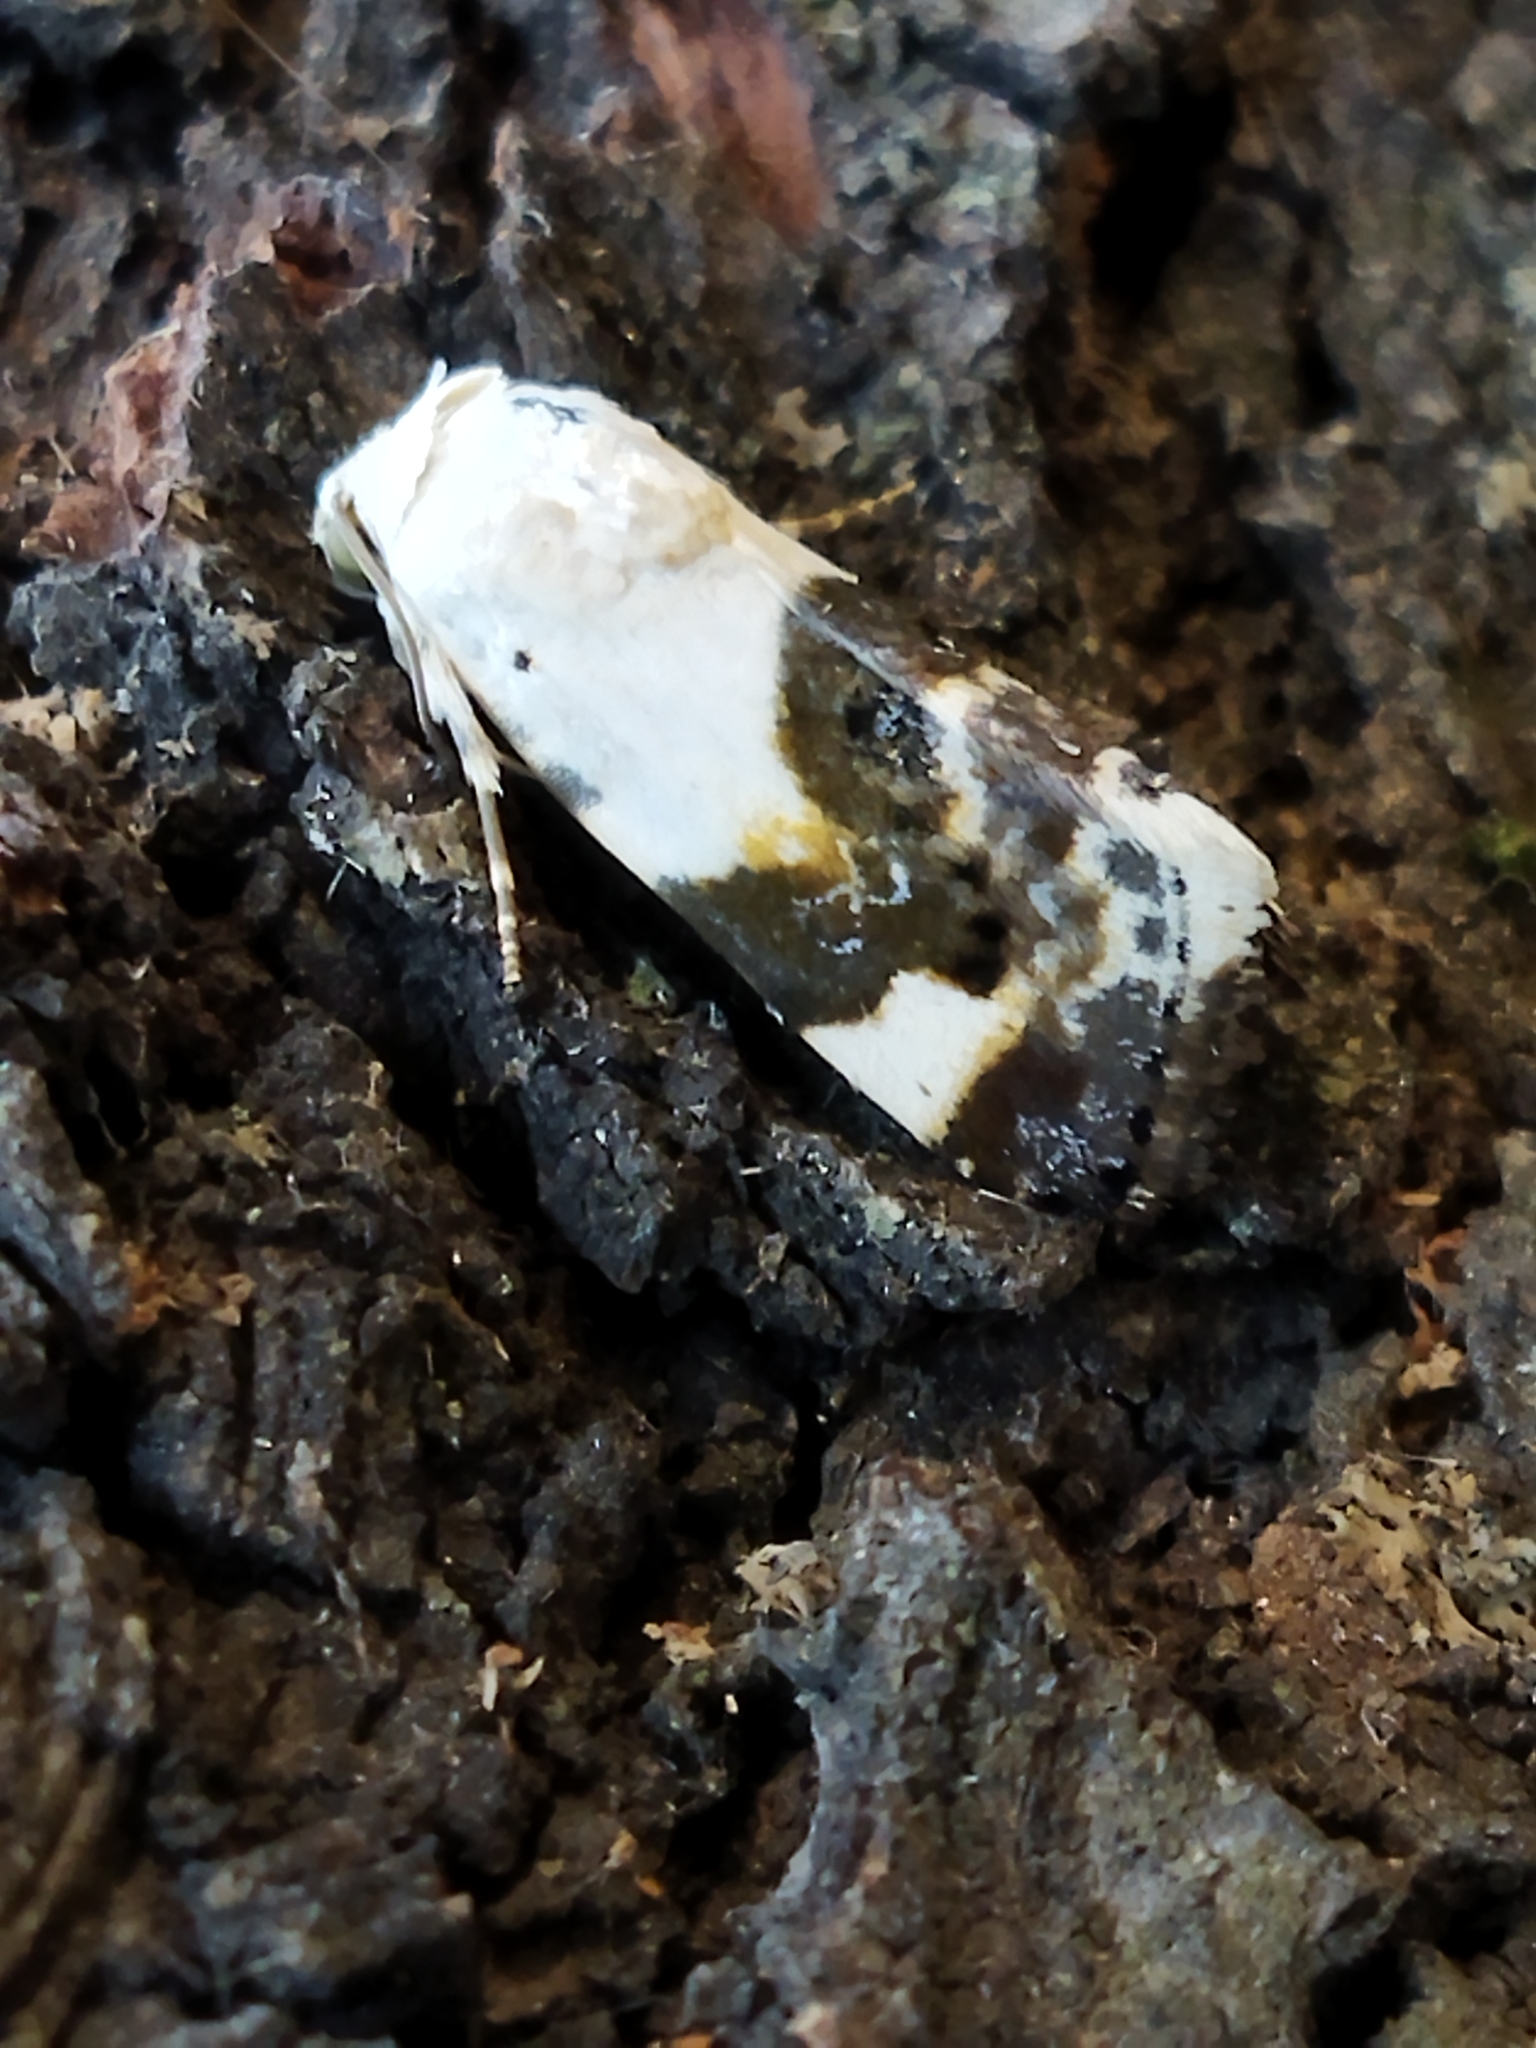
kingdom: Animalia
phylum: Arthropoda
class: Insecta
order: Lepidoptera
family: Noctuidae
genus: Acontia
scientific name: Acontia lucida
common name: Pale shoulder
